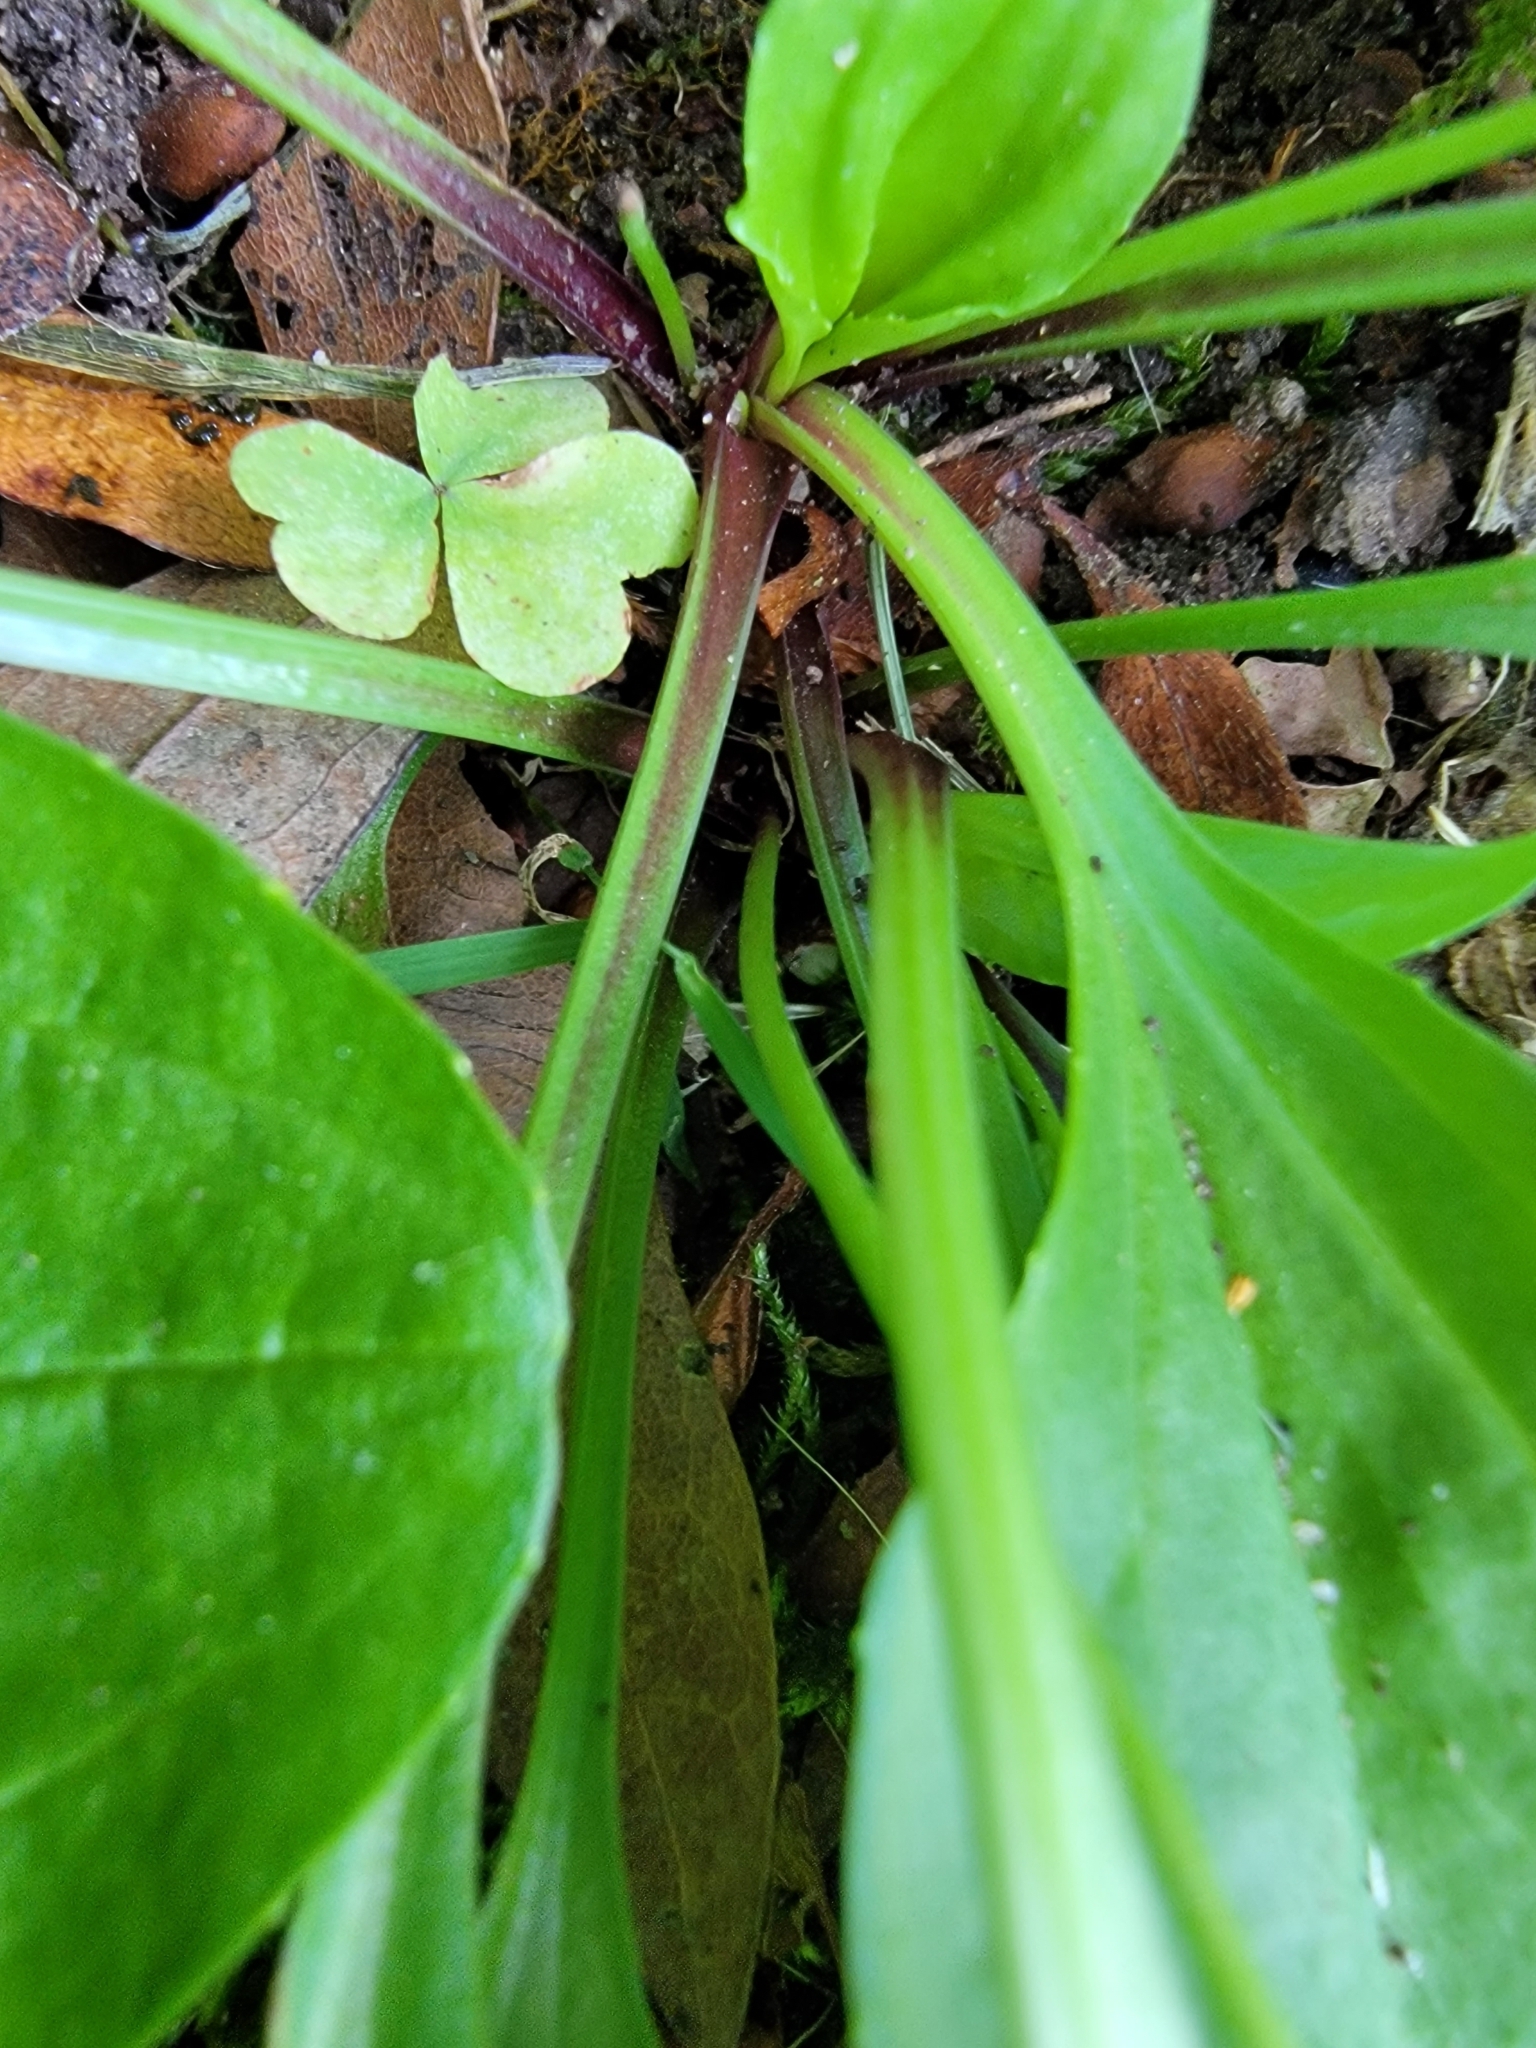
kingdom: Plantae
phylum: Tracheophyta
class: Magnoliopsida
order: Lamiales
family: Plantaginaceae
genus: Plantago
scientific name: Plantago rugelii
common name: American plantain
